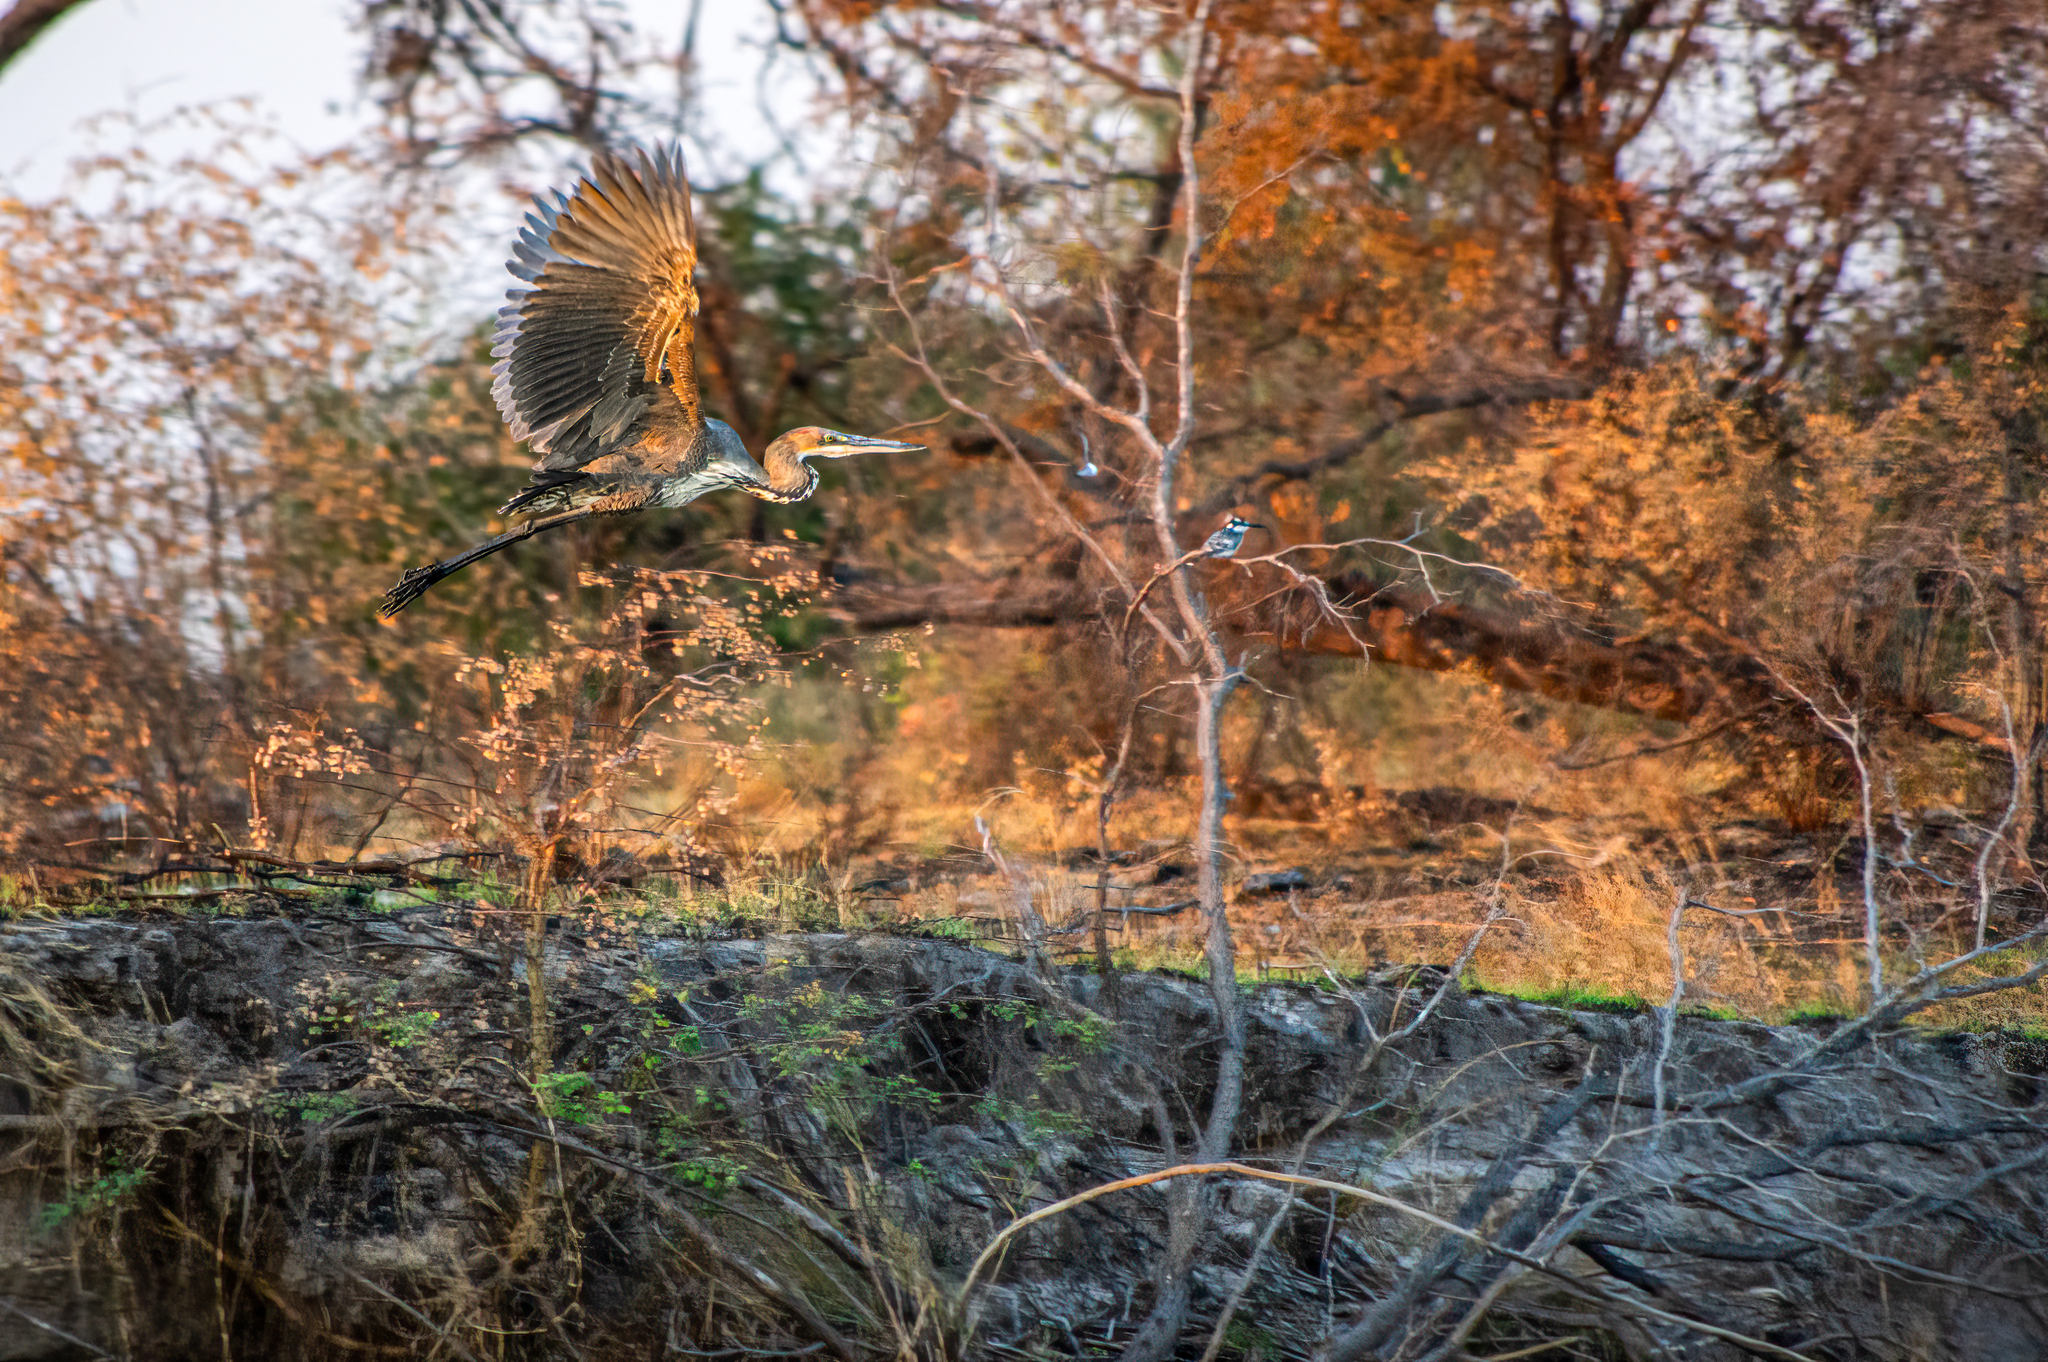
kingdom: Animalia
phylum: Chordata
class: Aves
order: Pelecaniformes
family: Ardeidae
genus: Ardea
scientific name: Ardea goliath
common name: Goliath heron
